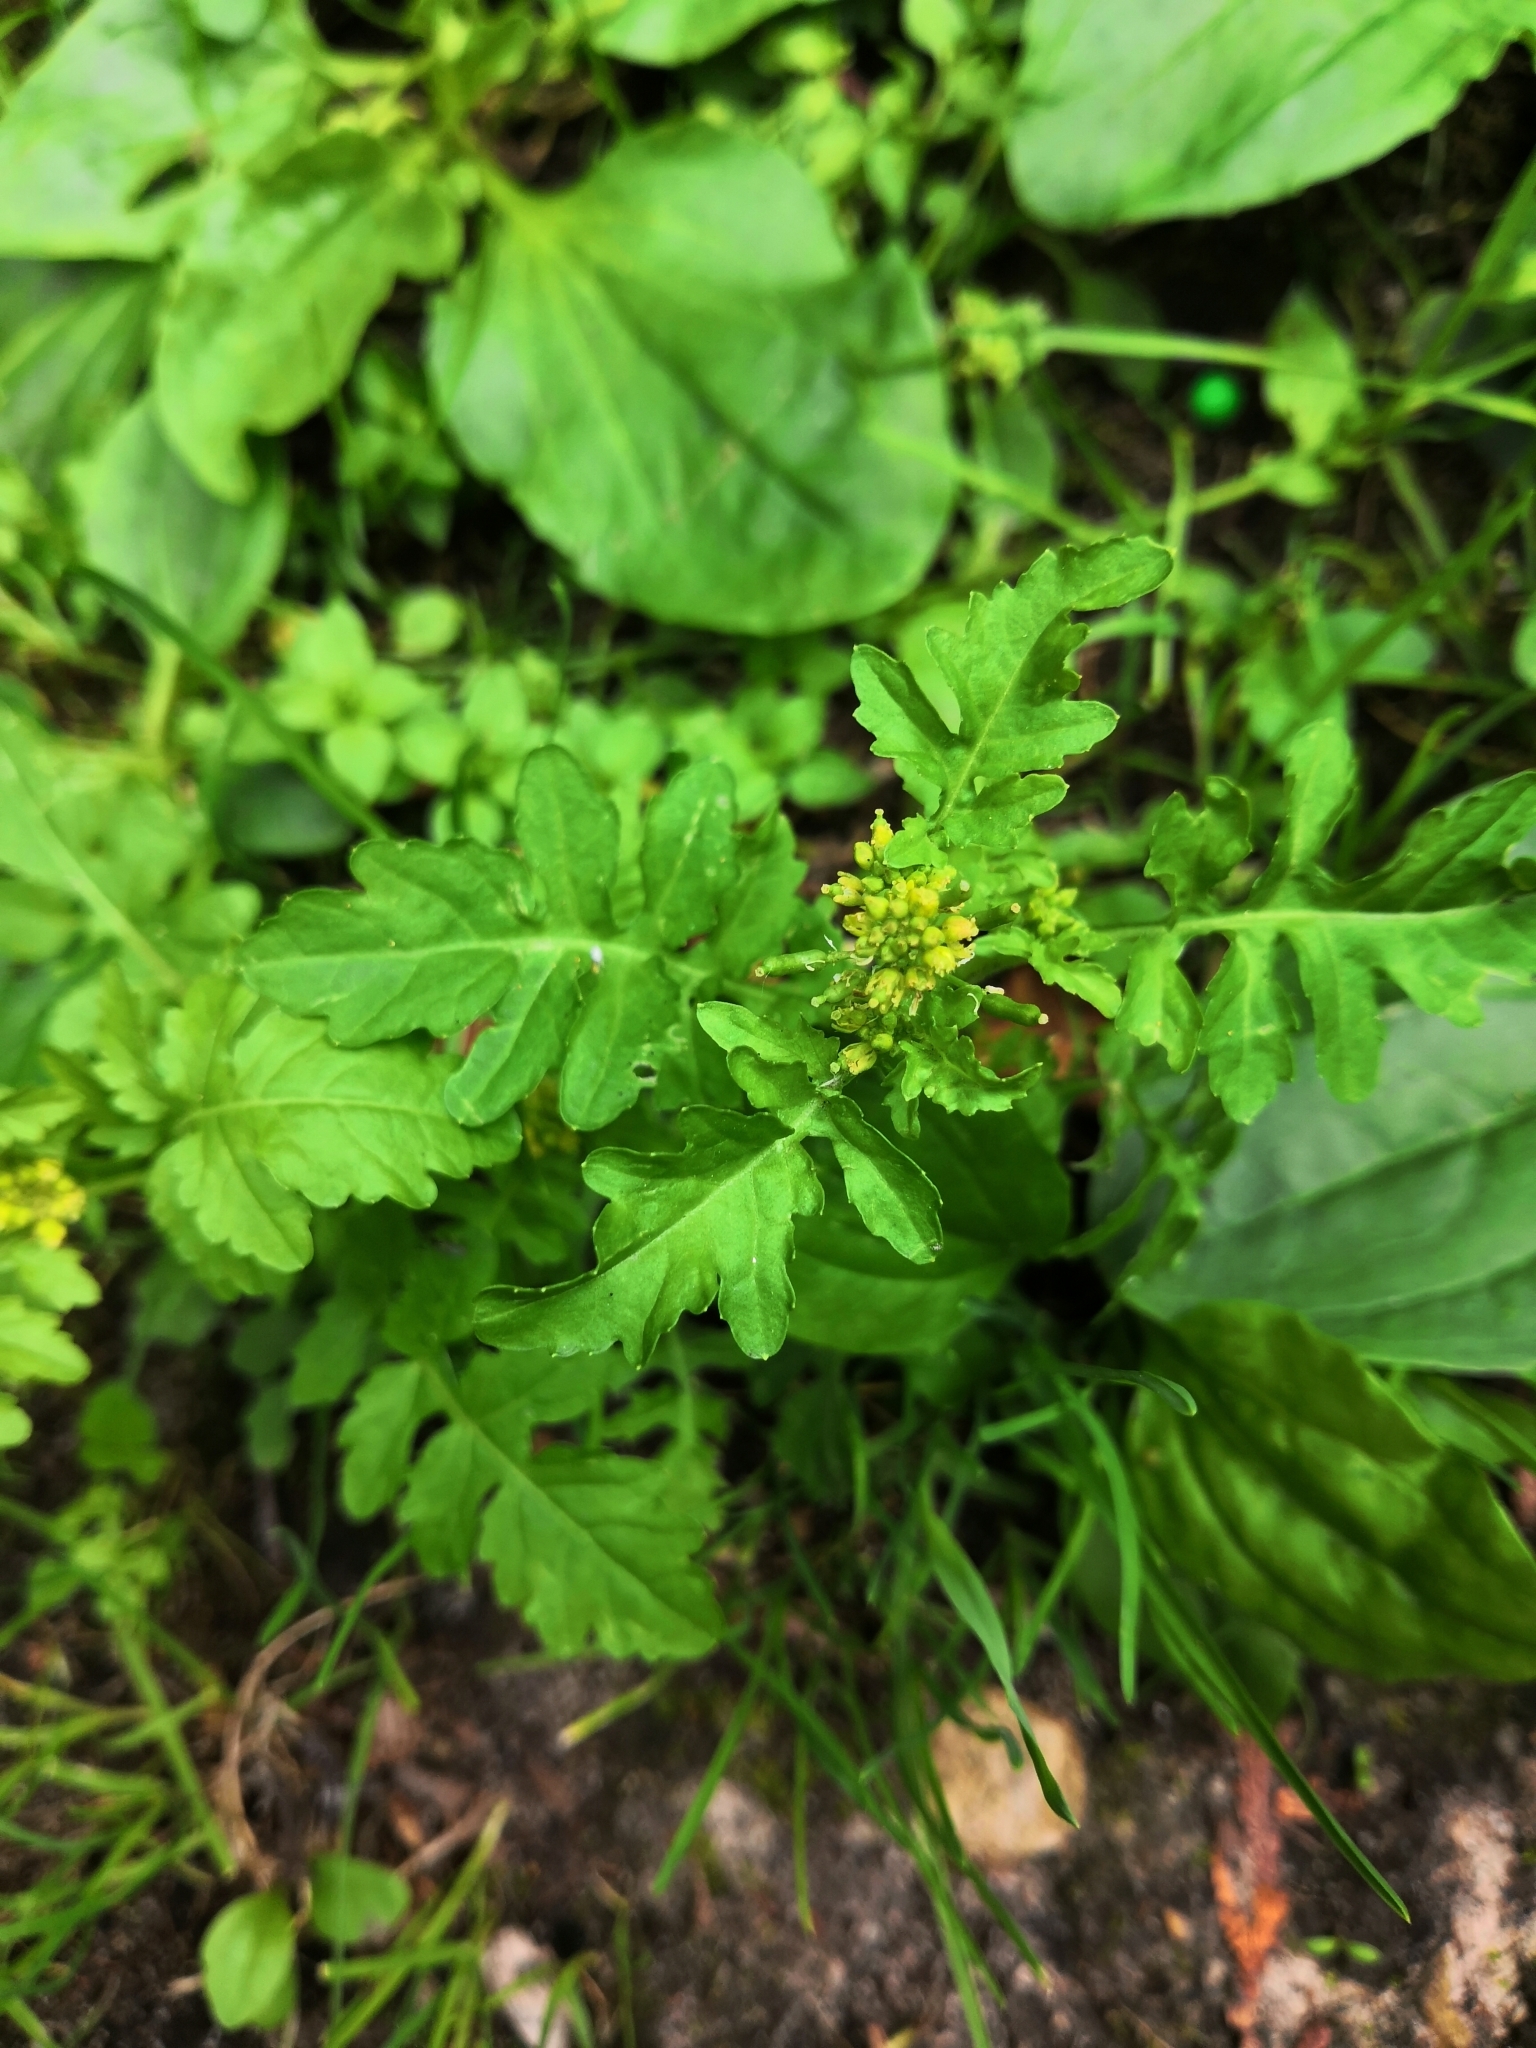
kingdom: Plantae
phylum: Tracheophyta
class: Magnoliopsida
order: Brassicales
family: Brassicaceae
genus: Rorippa
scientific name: Rorippa palustris
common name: Marsh yellow-cress
